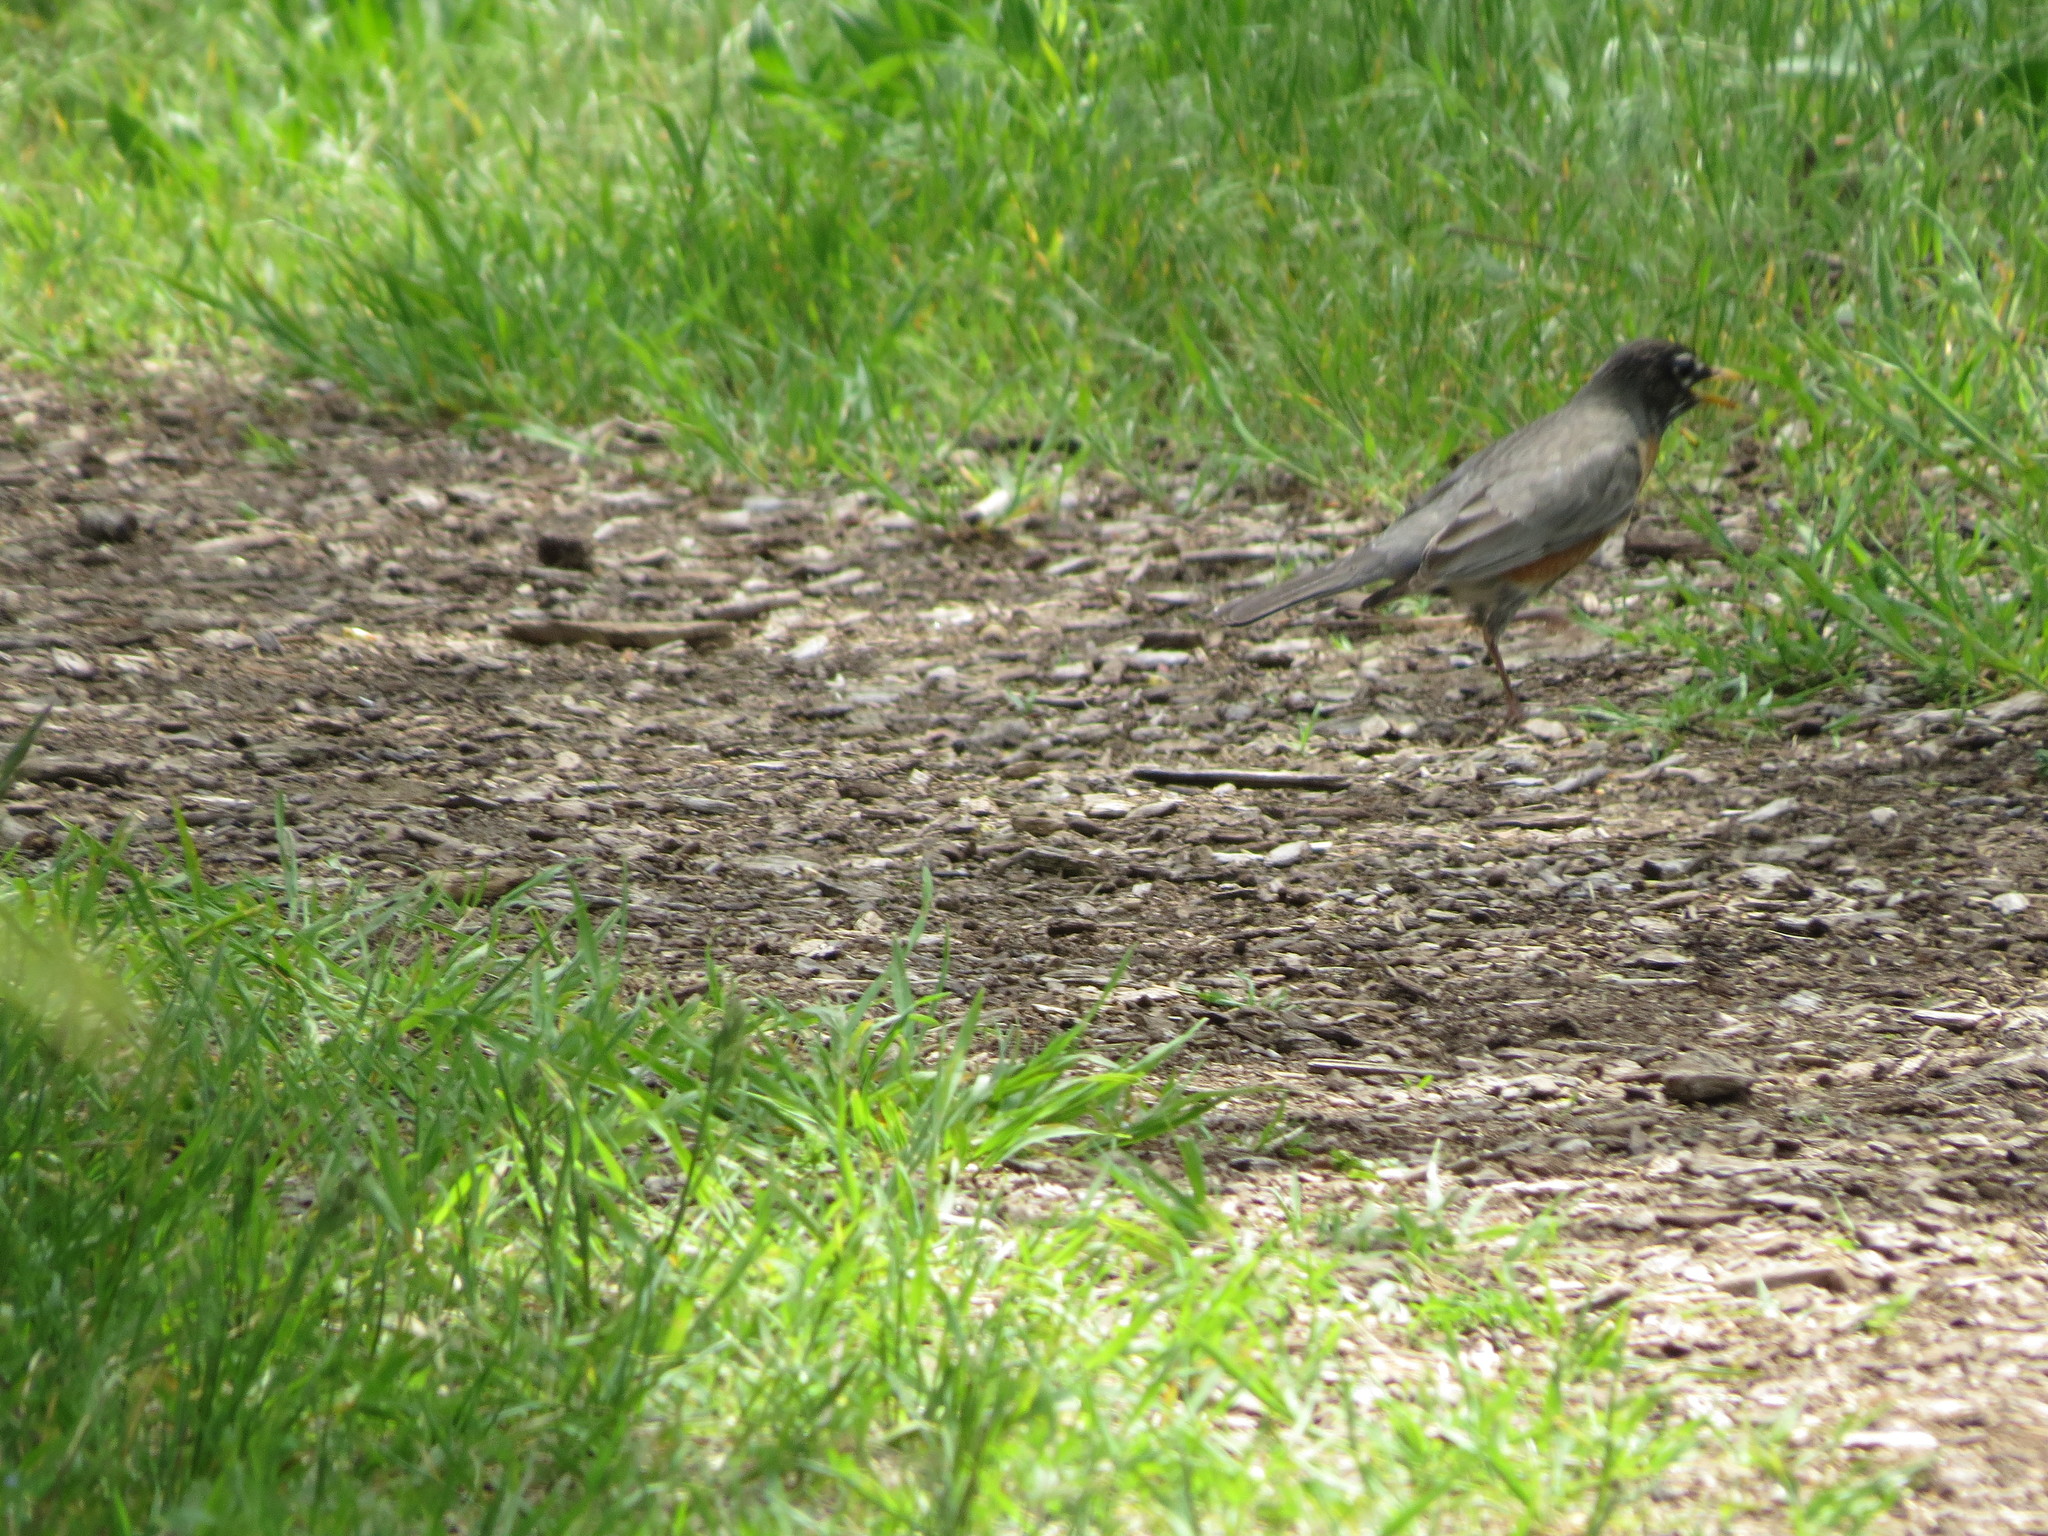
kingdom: Animalia
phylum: Chordata
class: Aves
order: Passeriformes
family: Turdidae
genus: Turdus
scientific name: Turdus migratorius
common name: American robin
